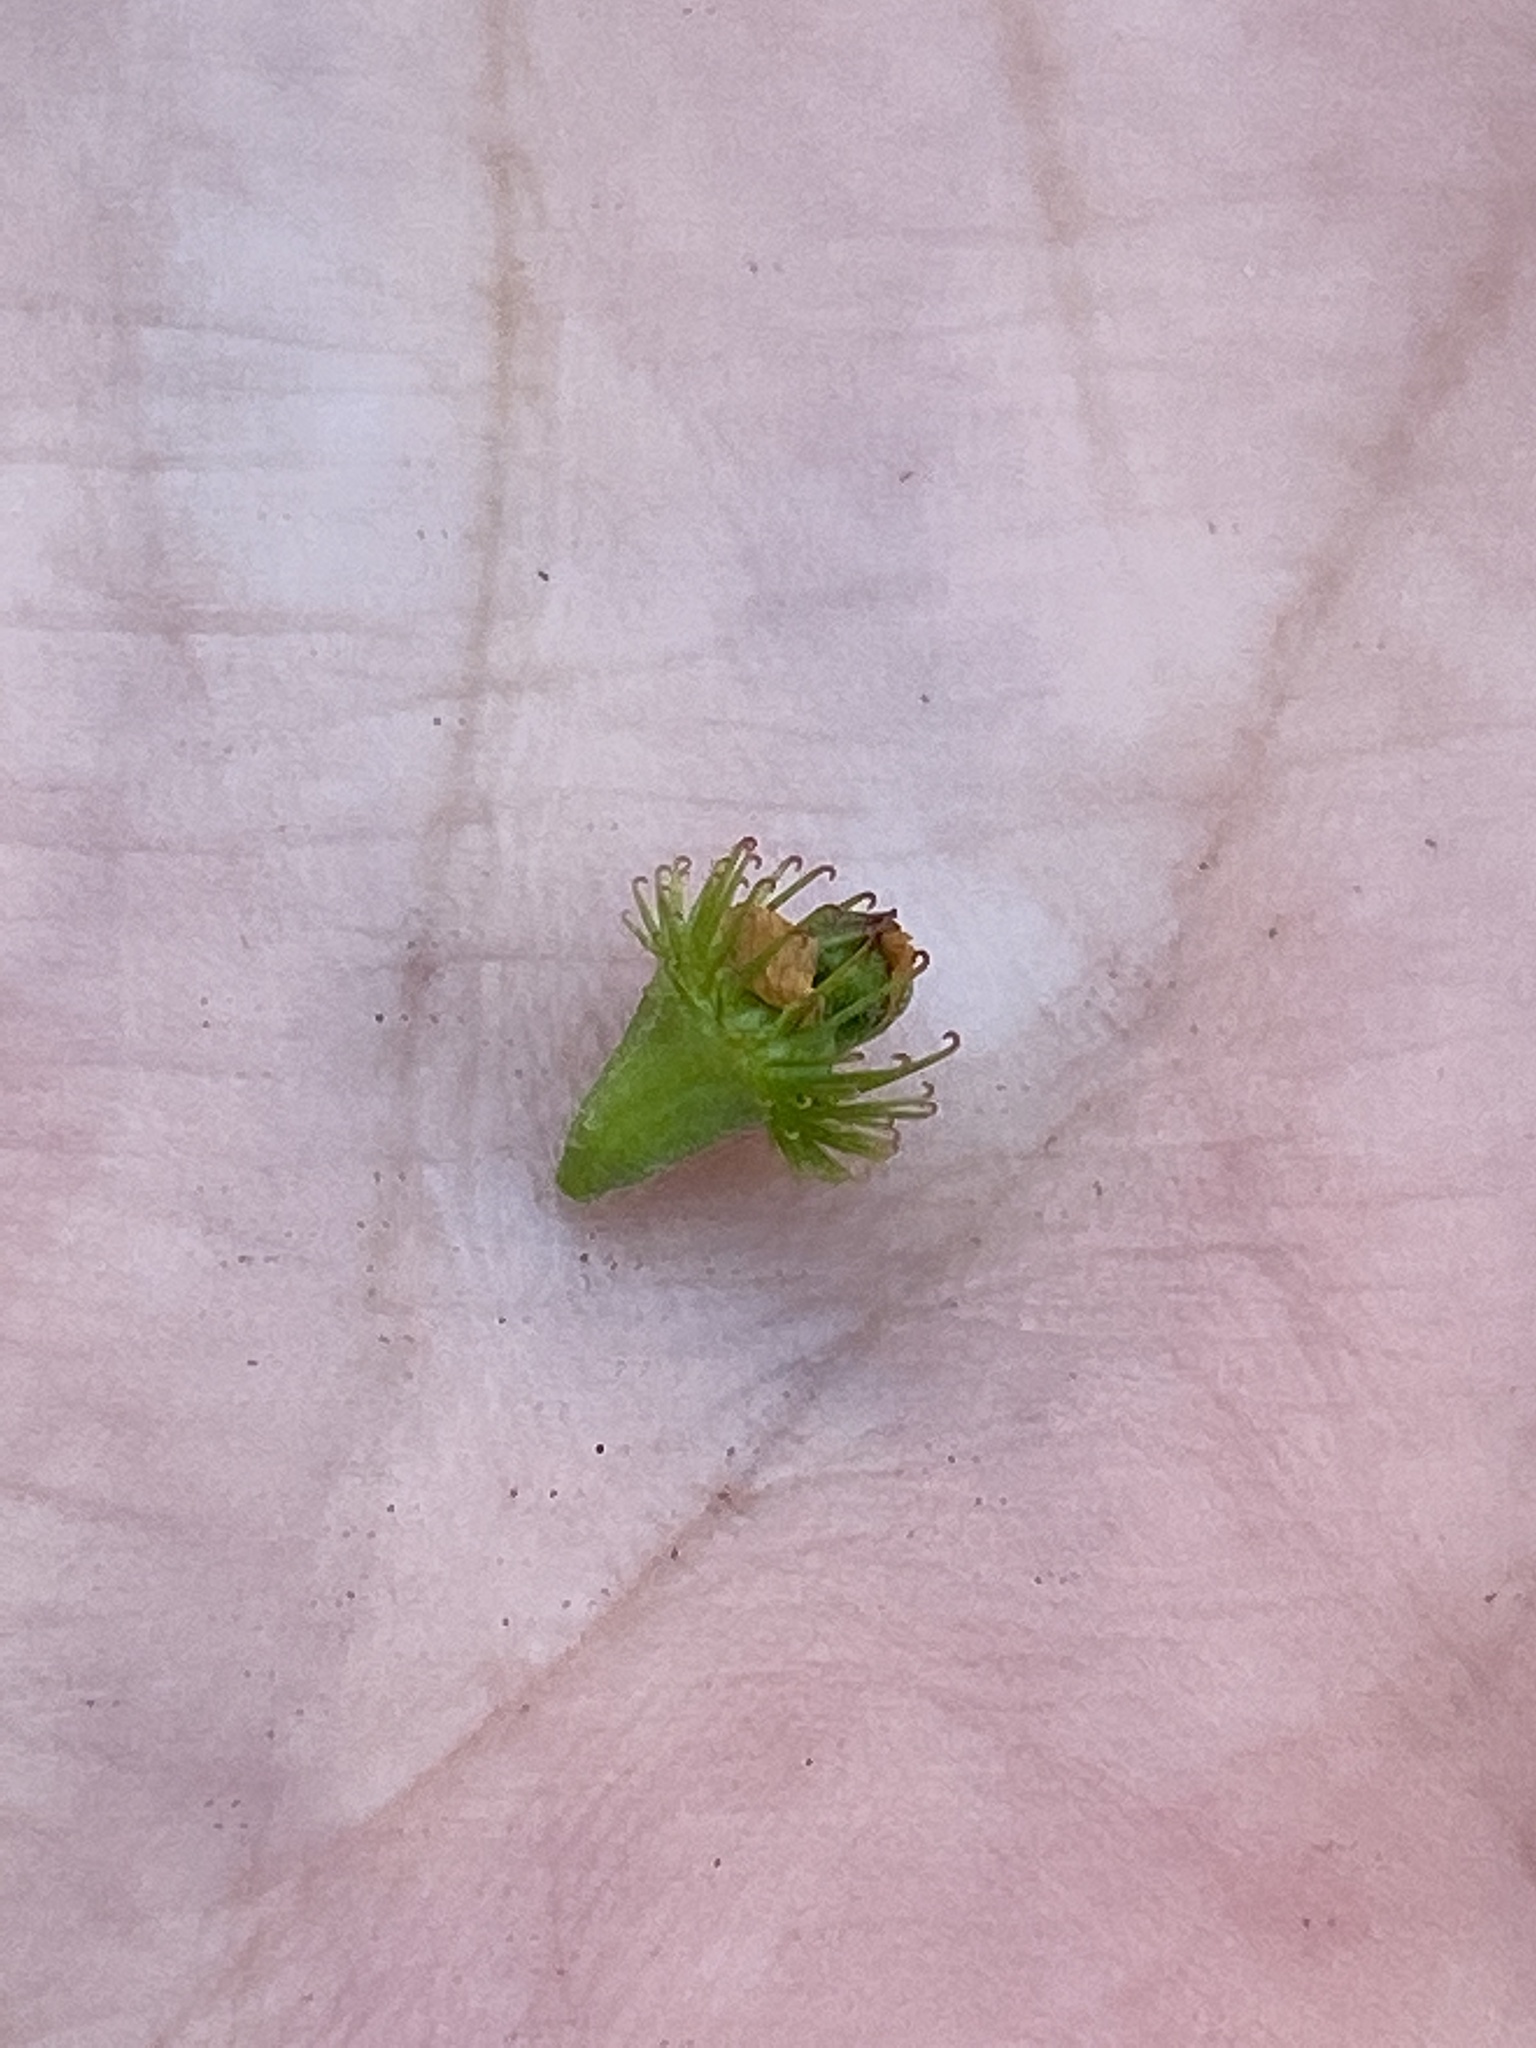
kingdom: Plantae
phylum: Tracheophyta
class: Magnoliopsida
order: Rosales
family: Rosaceae
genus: Agrimonia
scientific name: Agrimonia parviflora
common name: Harvest-lice
